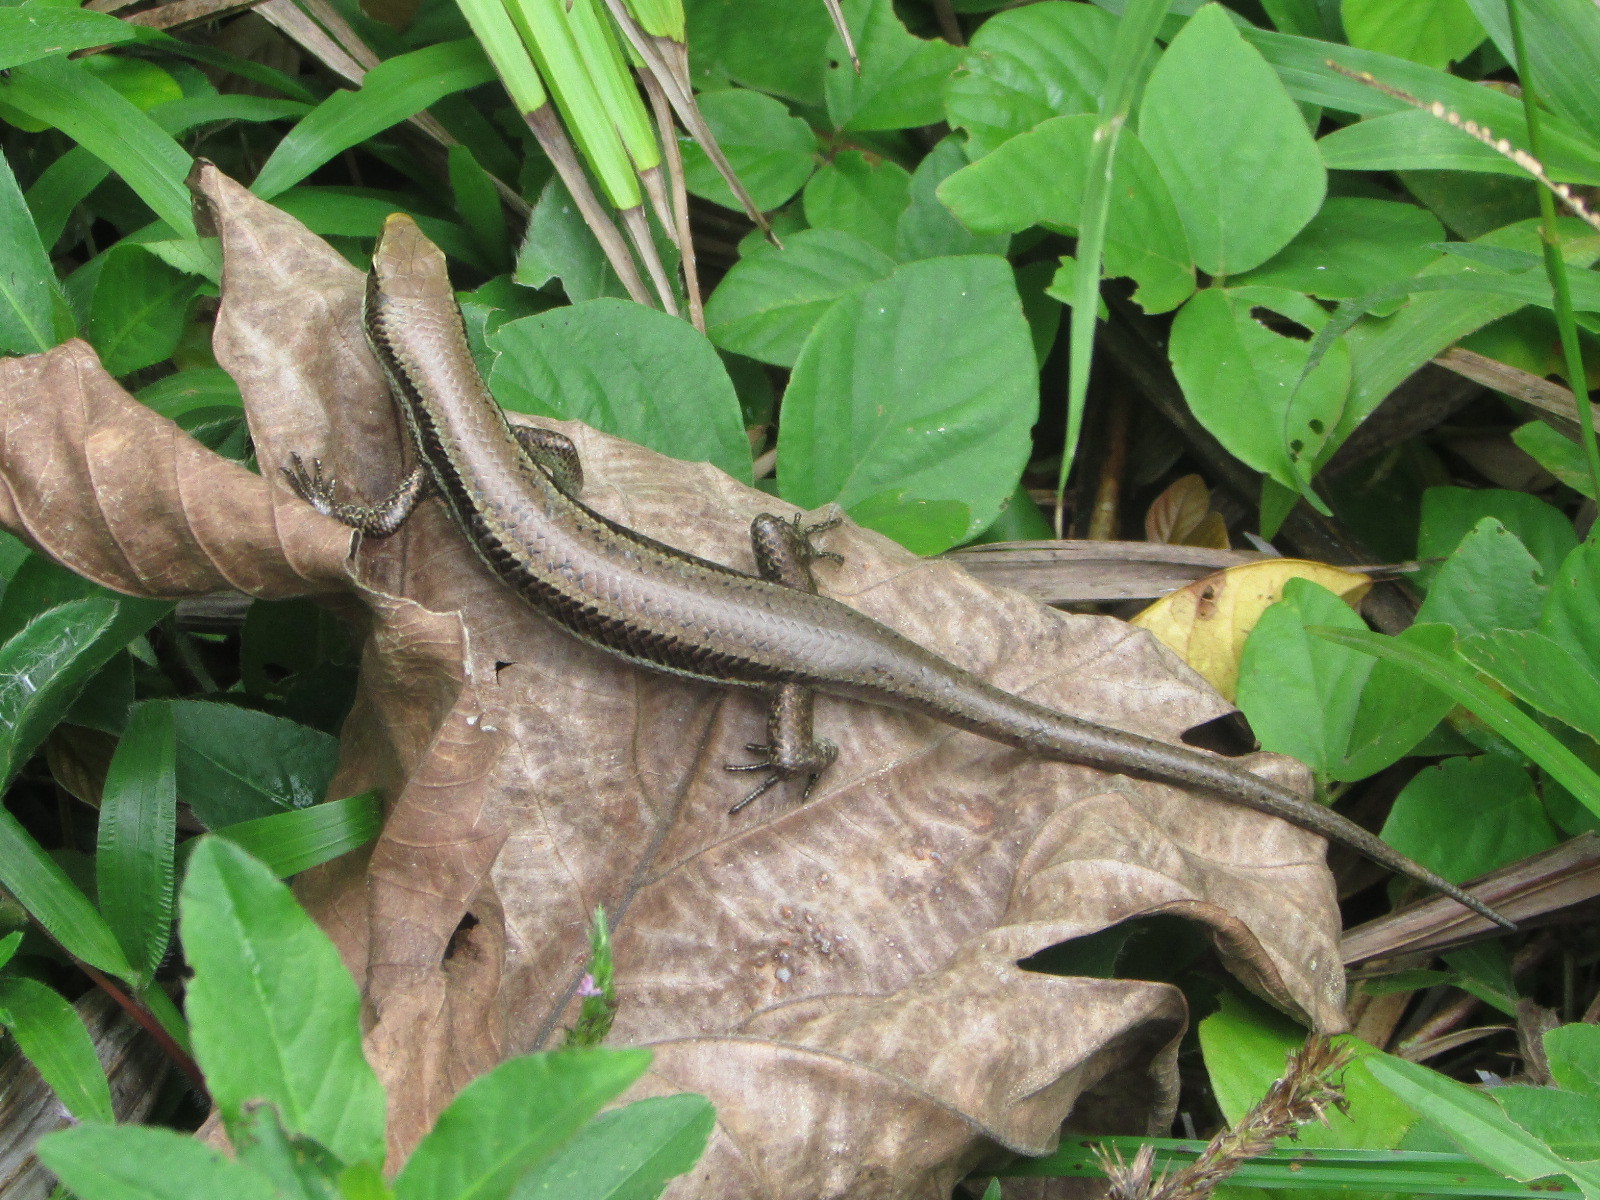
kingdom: Animalia
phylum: Chordata
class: Squamata
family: Scincidae
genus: Copeoglossum
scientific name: Copeoglossum nigropunctatum
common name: Black-spotted skink
